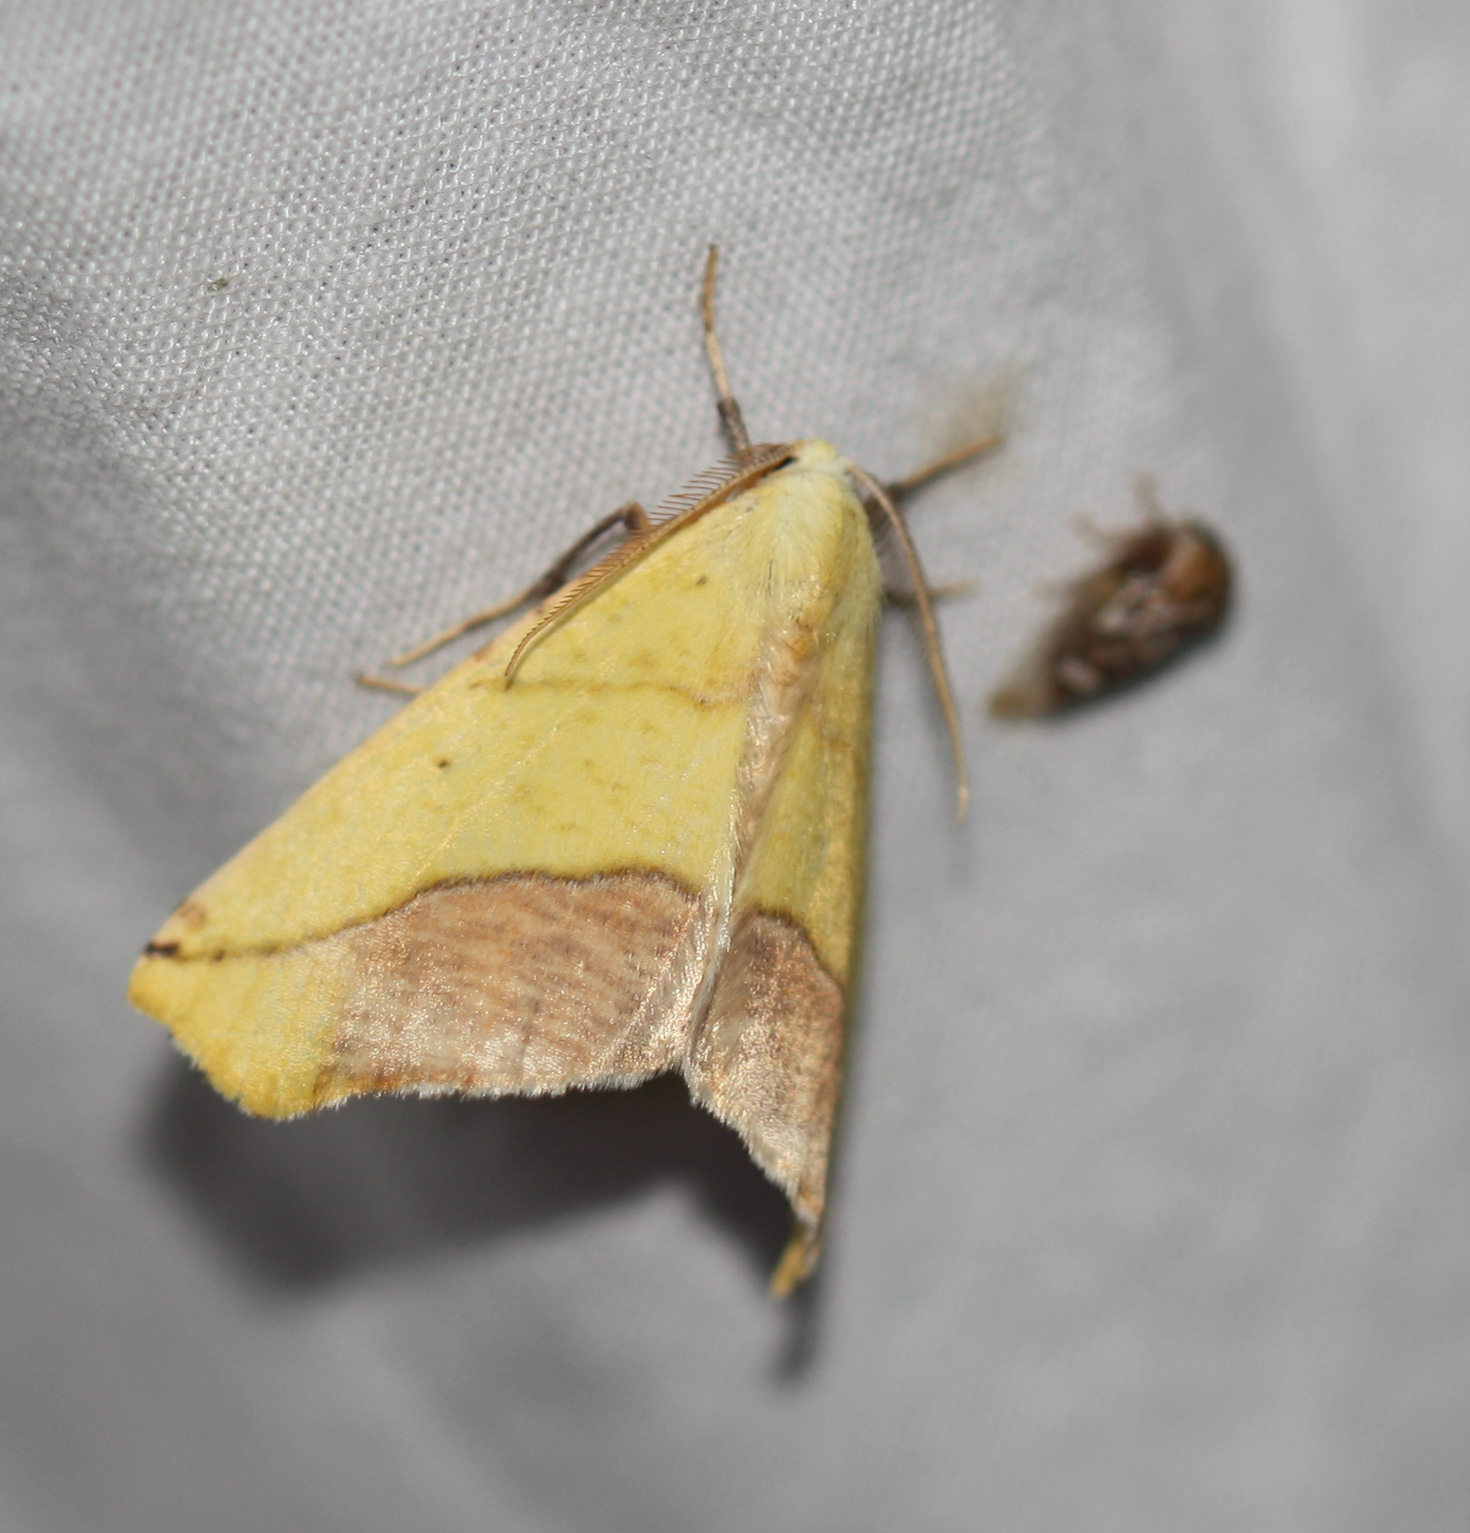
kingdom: Animalia
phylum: Arthropoda
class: Insecta
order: Lepidoptera
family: Geometridae
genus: Sicya
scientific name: Sicya macularia
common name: Sharp-lined yellow
